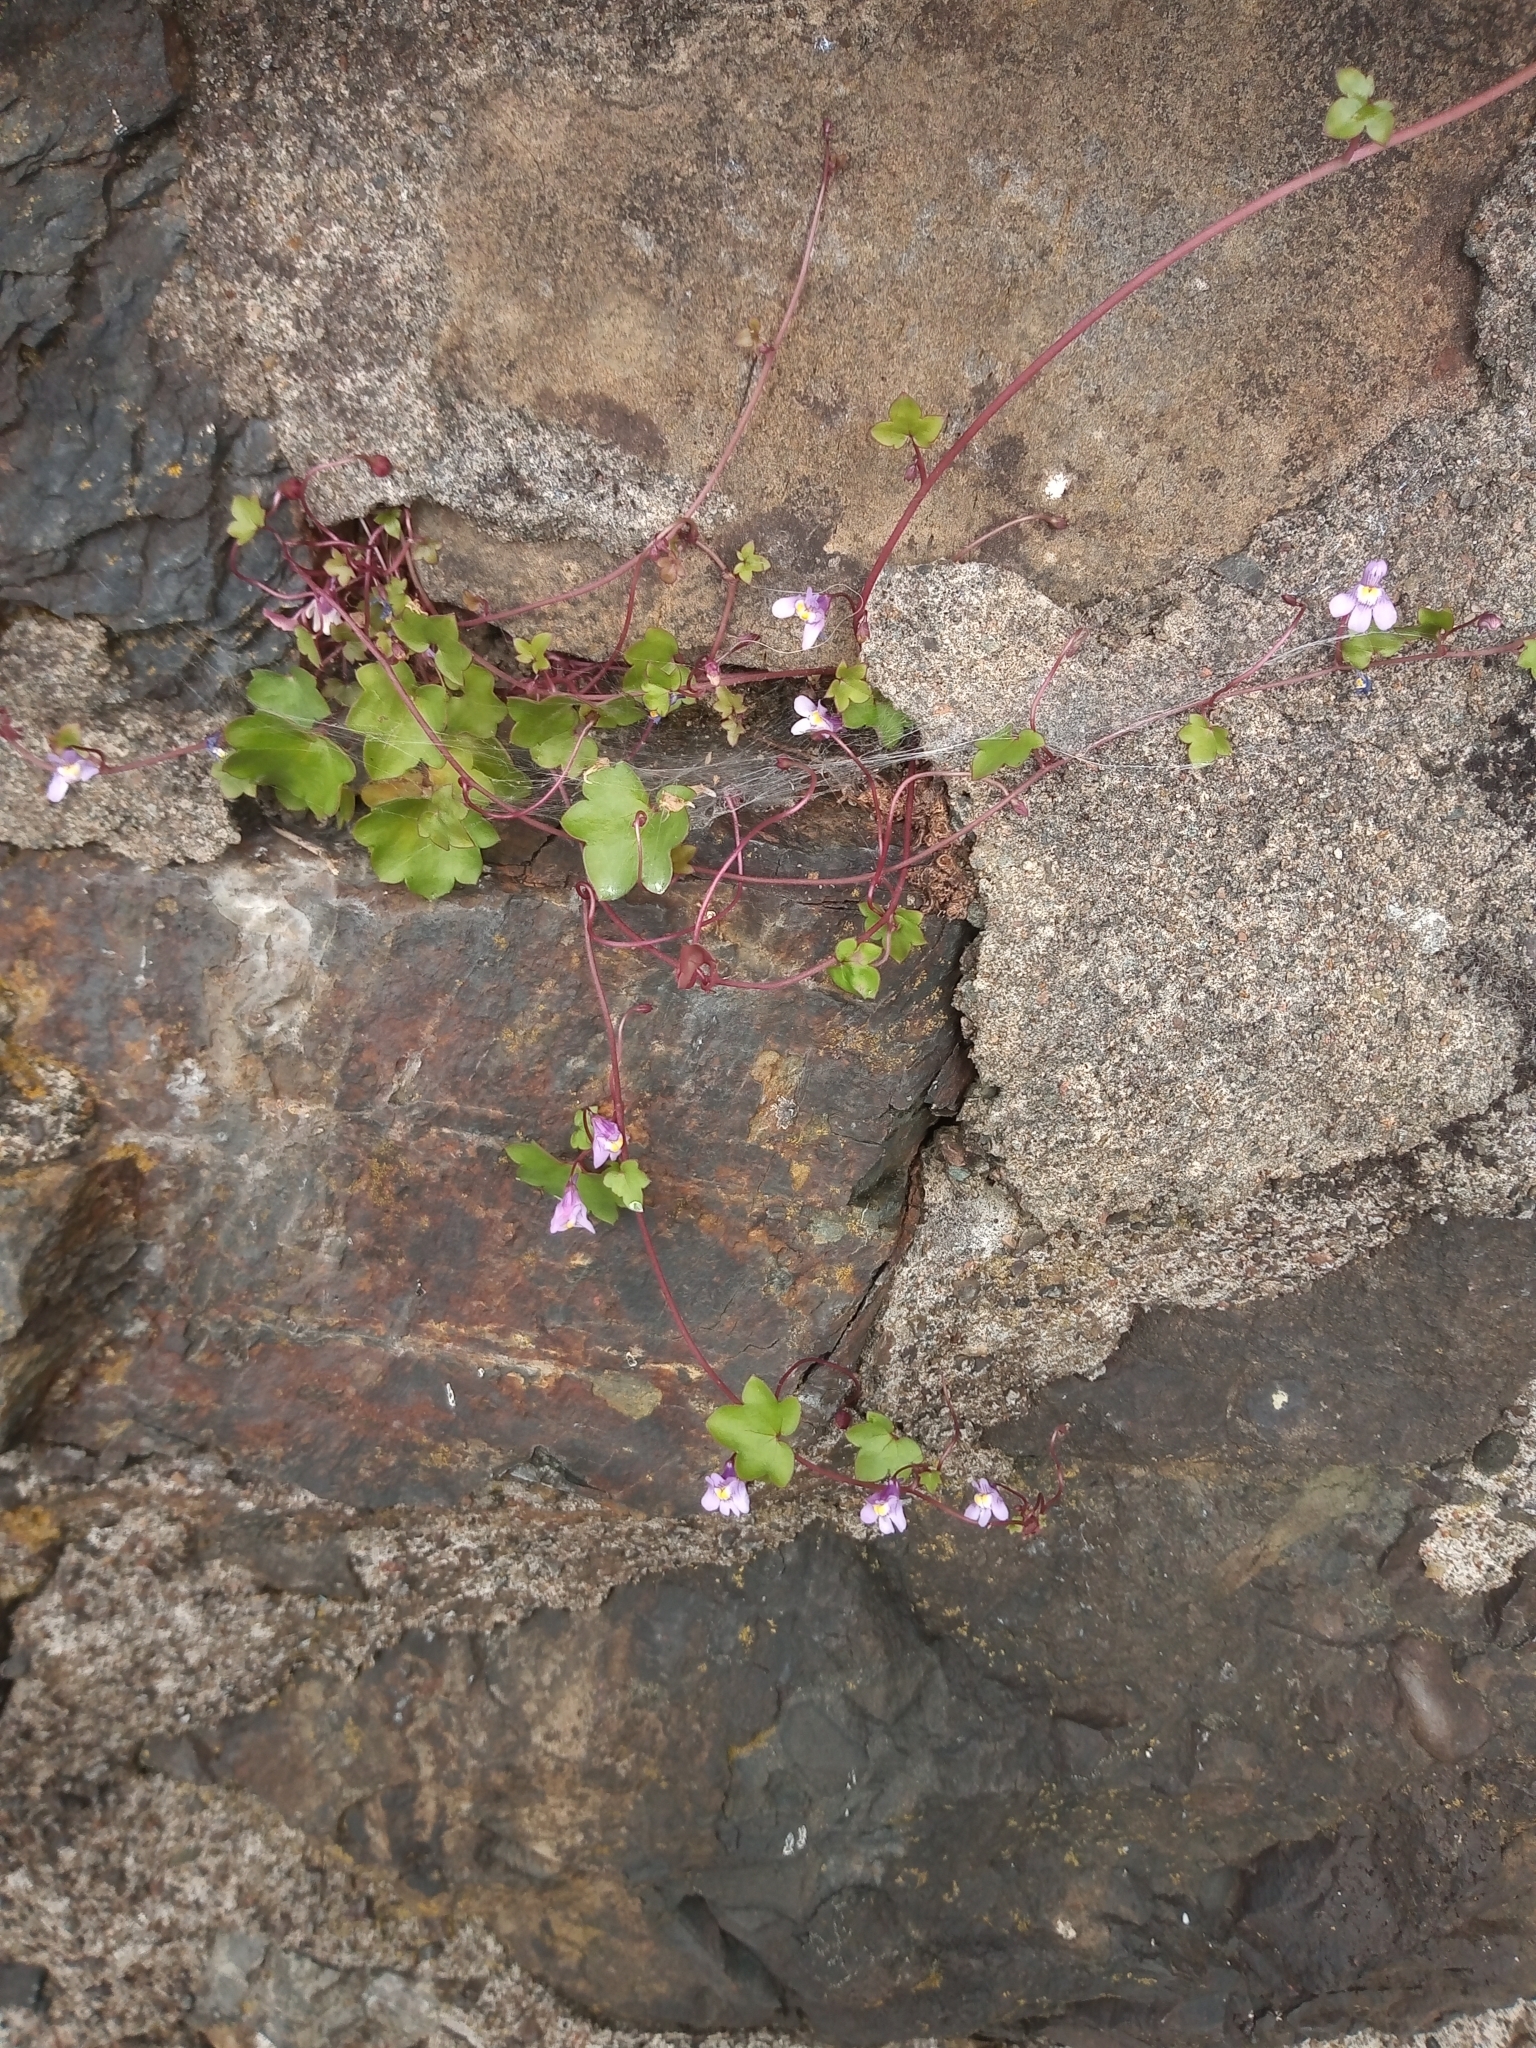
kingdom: Plantae
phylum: Tracheophyta
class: Magnoliopsida
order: Lamiales
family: Plantaginaceae
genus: Cymbalaria
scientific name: Cymbalaria muralis
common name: Ivy-leaved toadflax
